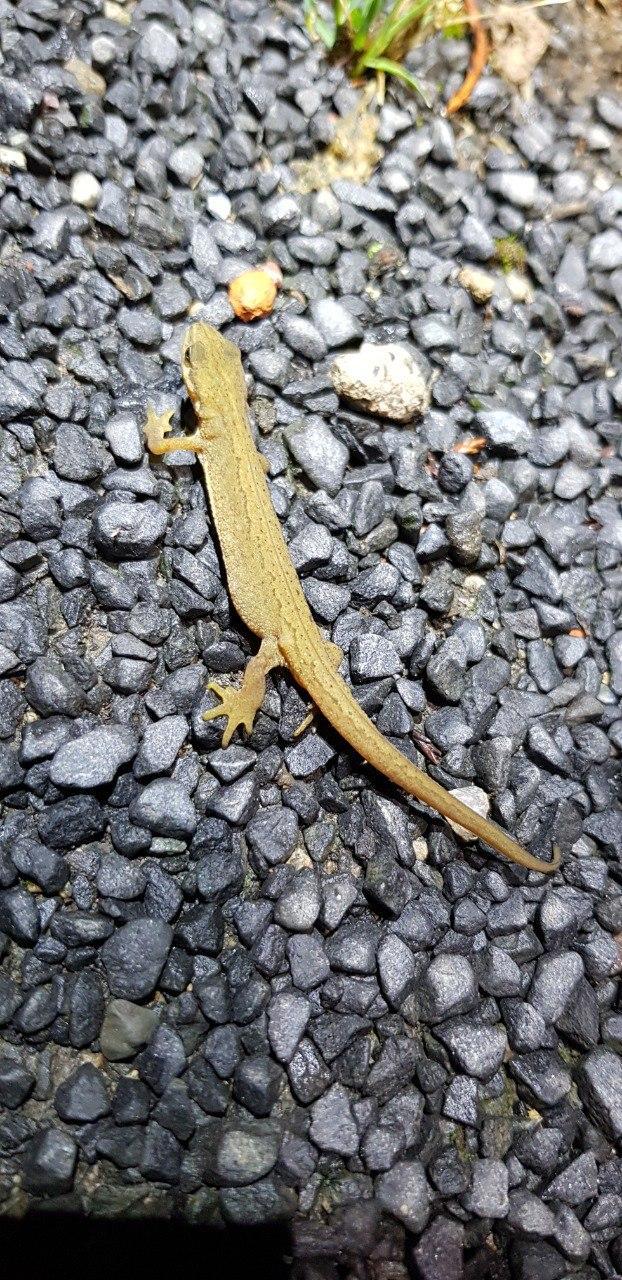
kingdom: Animalia
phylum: Chordata
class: Amphibia
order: Caudata
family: Salamandridae
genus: Lissotriton
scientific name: Lissotriton vulgaris
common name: Smooth newt
